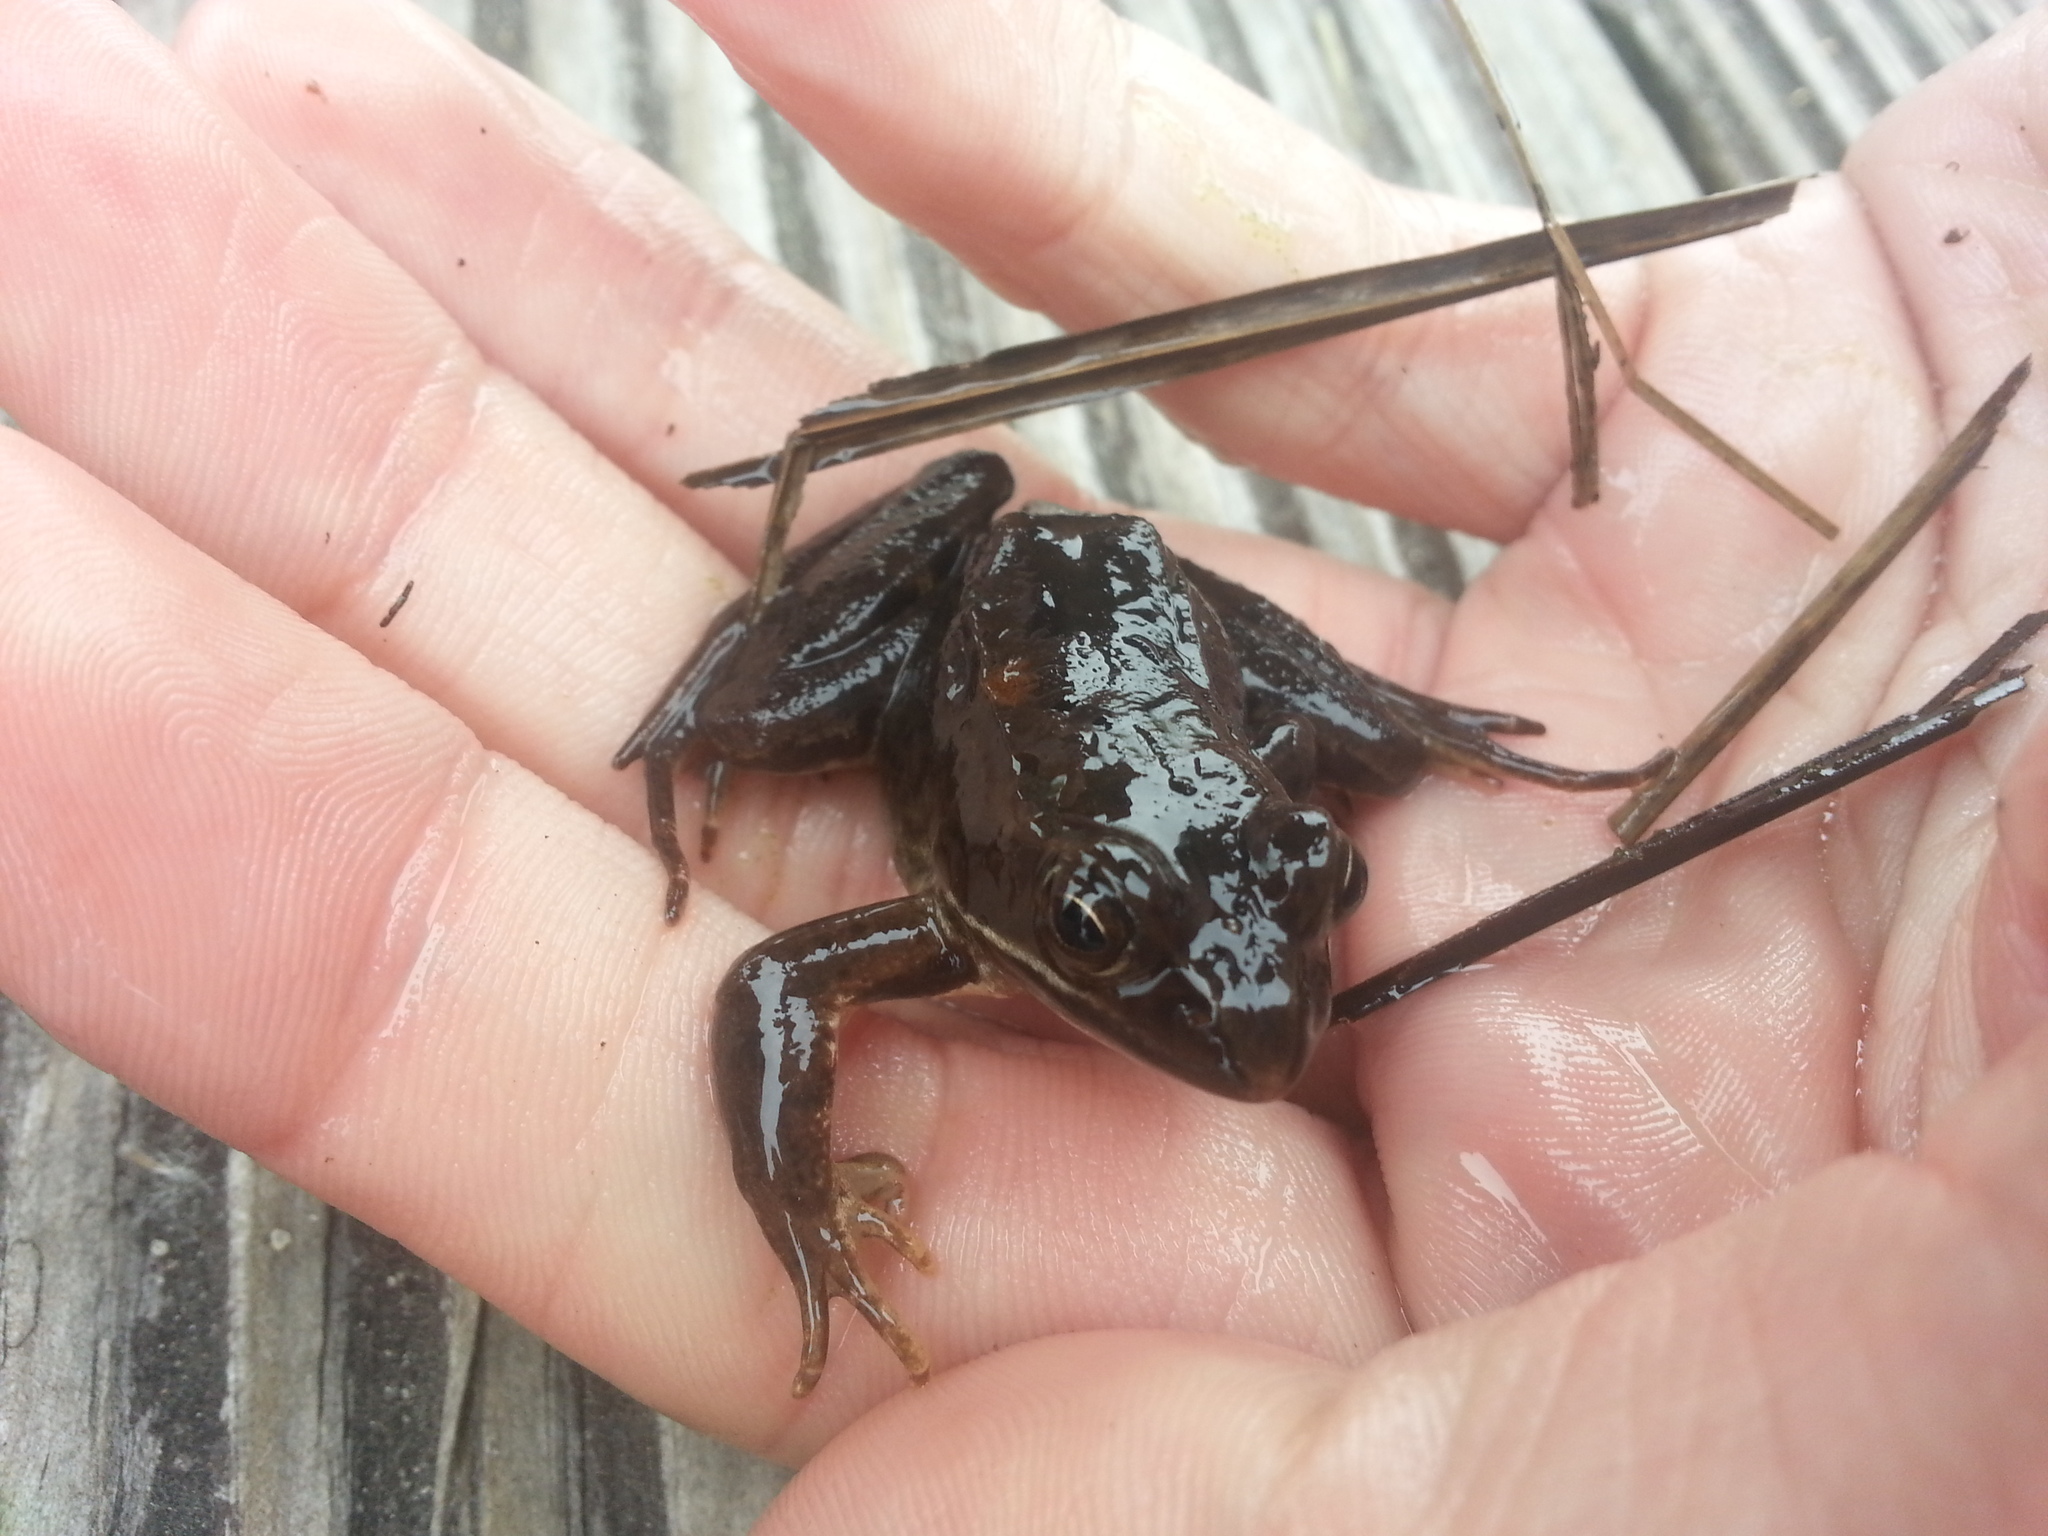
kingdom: Animalia
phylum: Chordata
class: Amphibia
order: Anura
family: Ranidae
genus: Rana
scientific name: Rana temporaria
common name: Common frog
